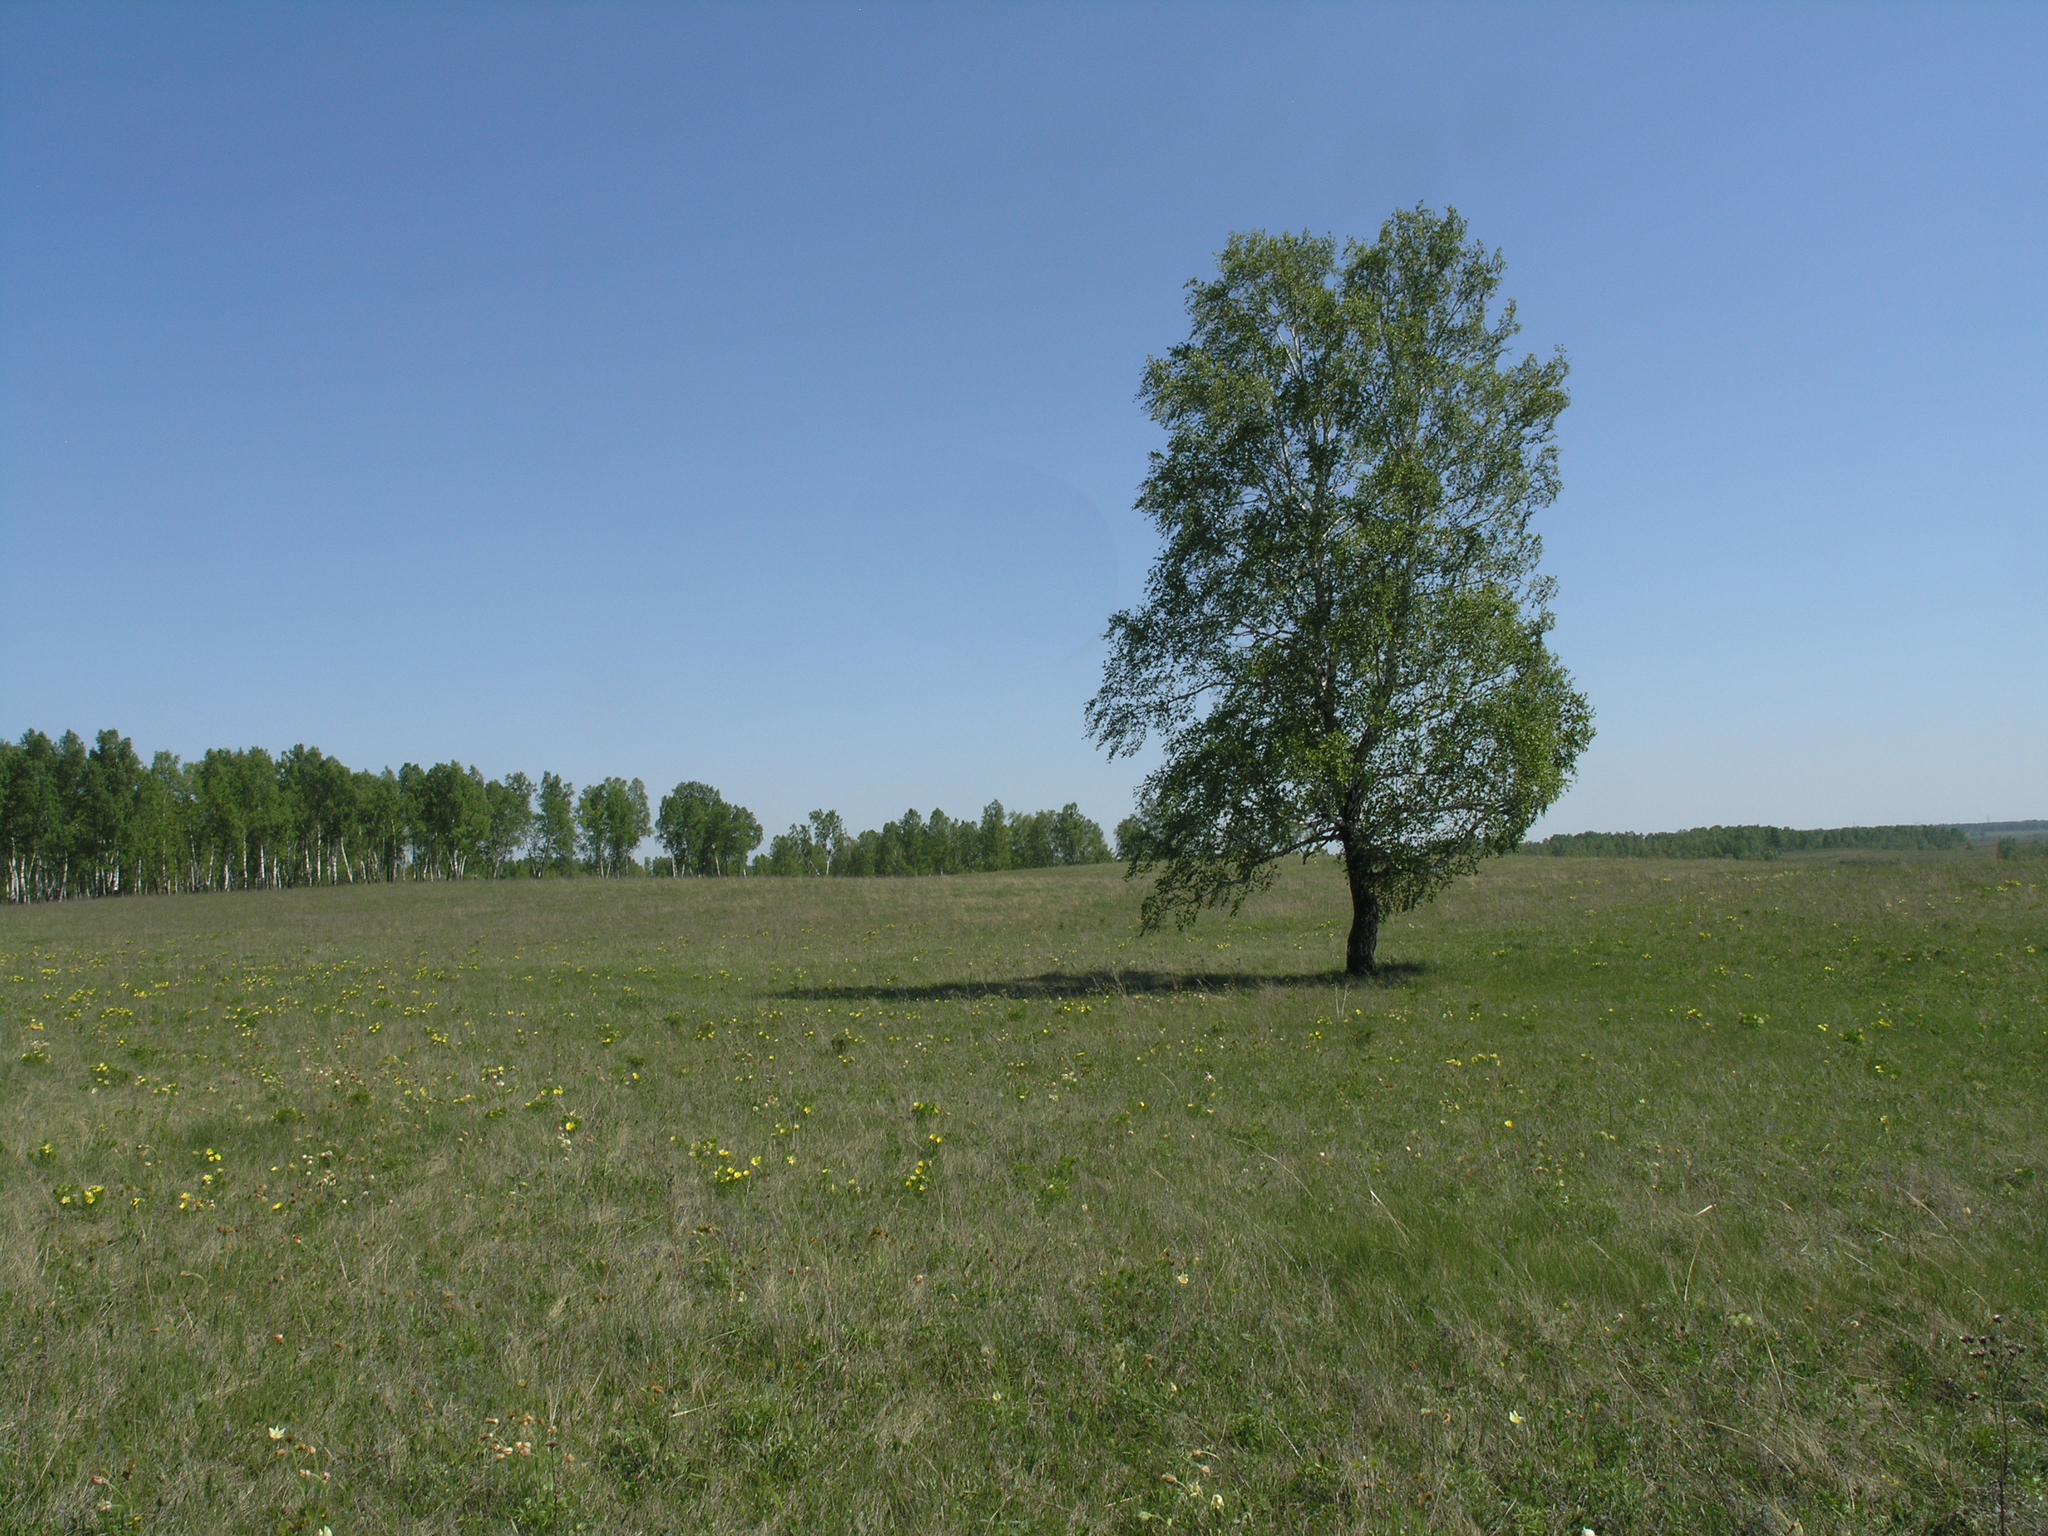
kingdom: Plantae
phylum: Tracheophyta
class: Magnoliopsida
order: Fagales
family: Betulaceae
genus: Betula
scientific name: Betula pendula
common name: Silver birch
